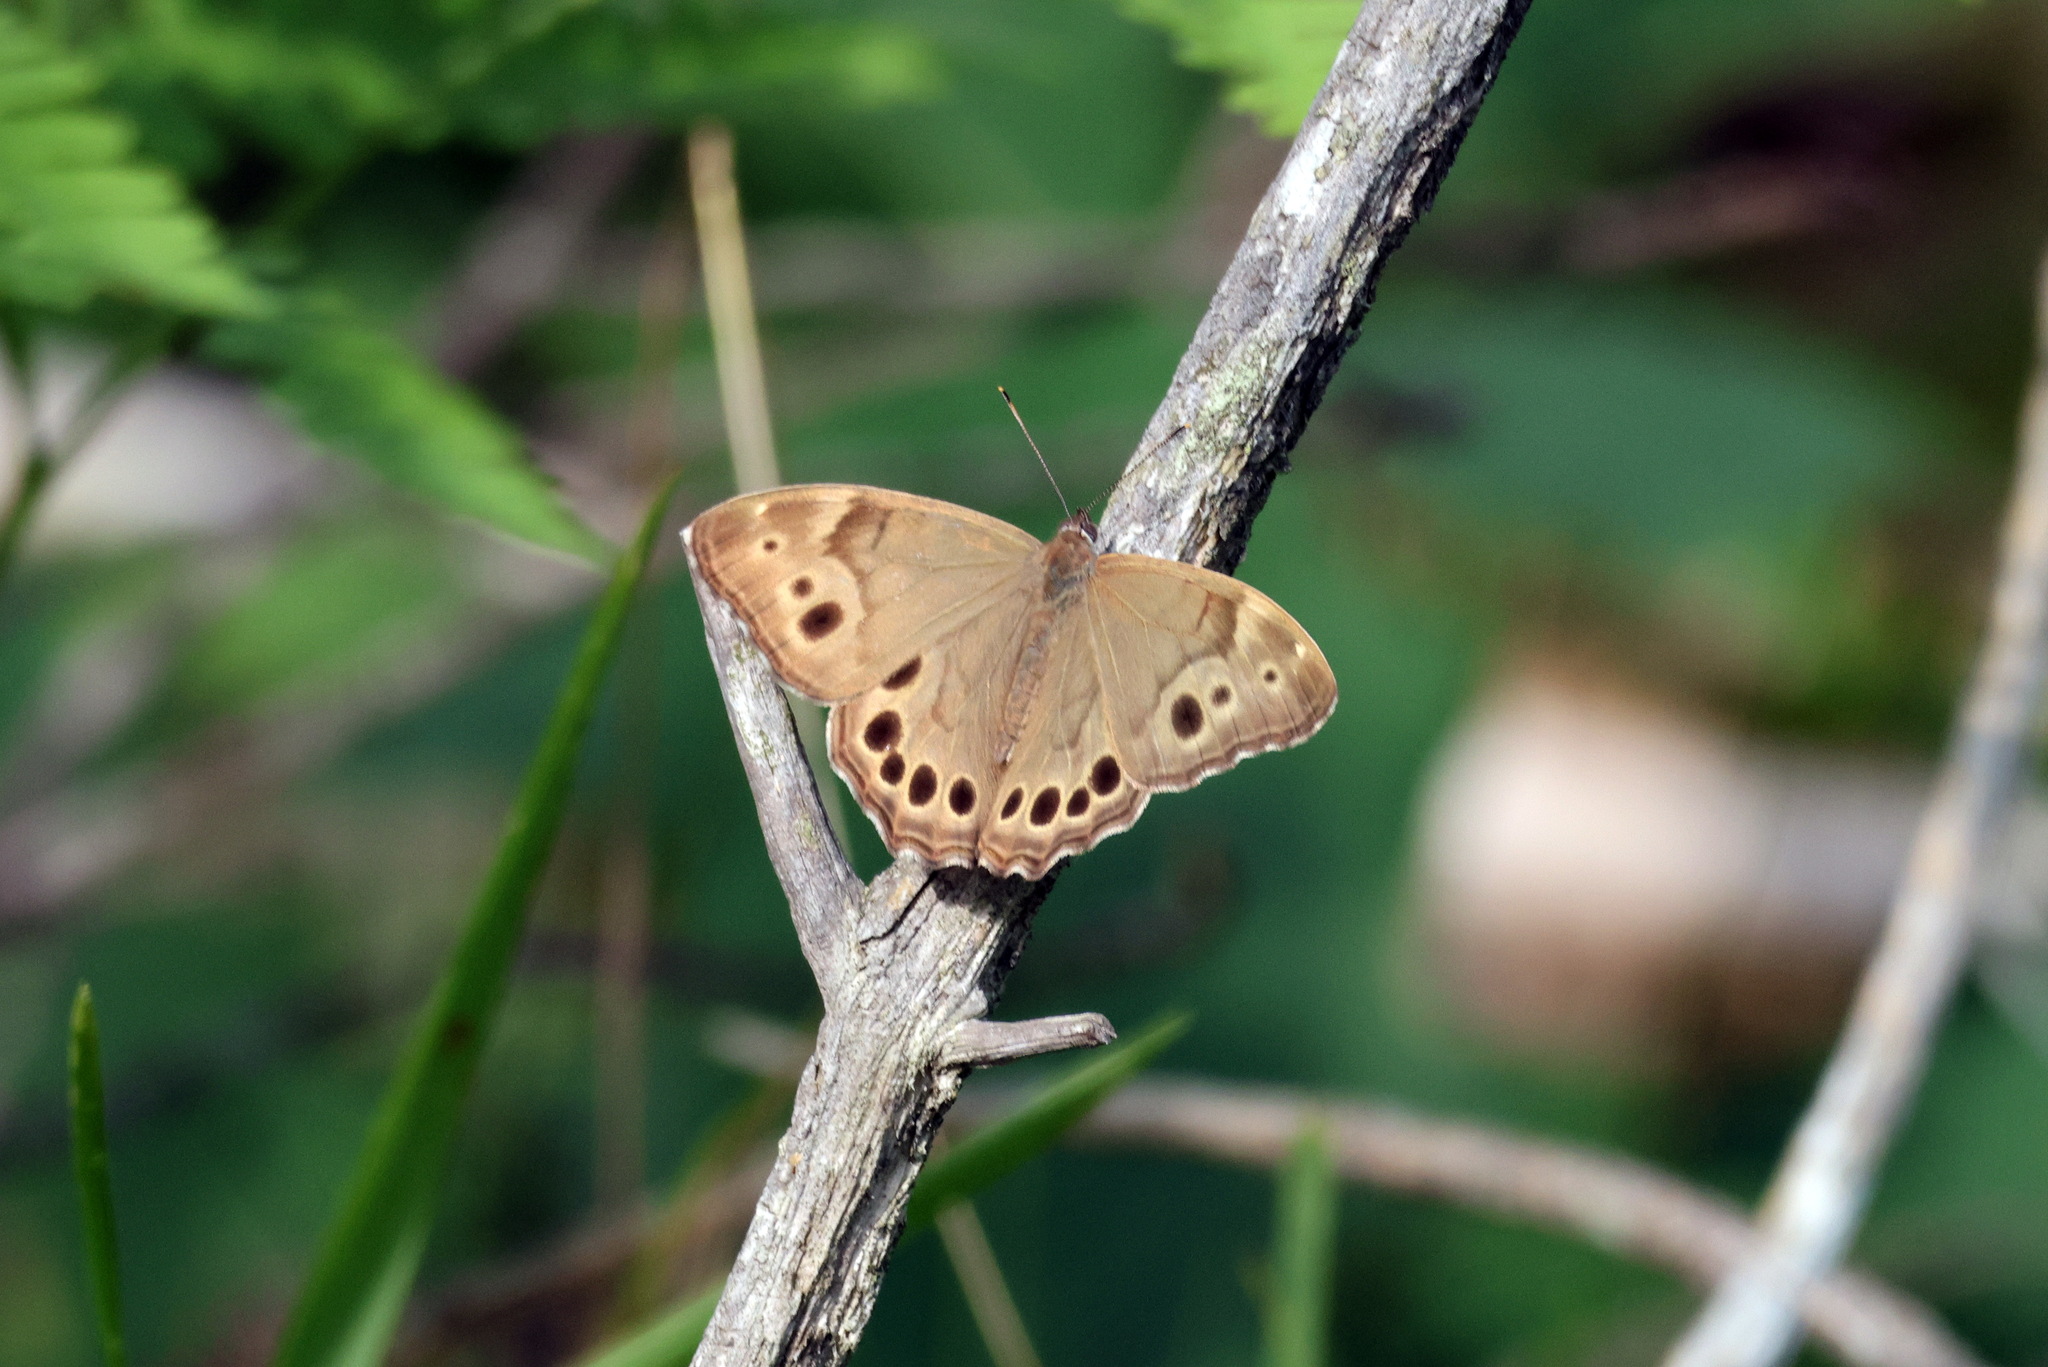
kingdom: Animalia
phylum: Arthropoda
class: Insecta
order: Lepidoptera
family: Nymphalidae
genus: Lethe
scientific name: Lethe anthedon
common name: Northern pearly-eye
